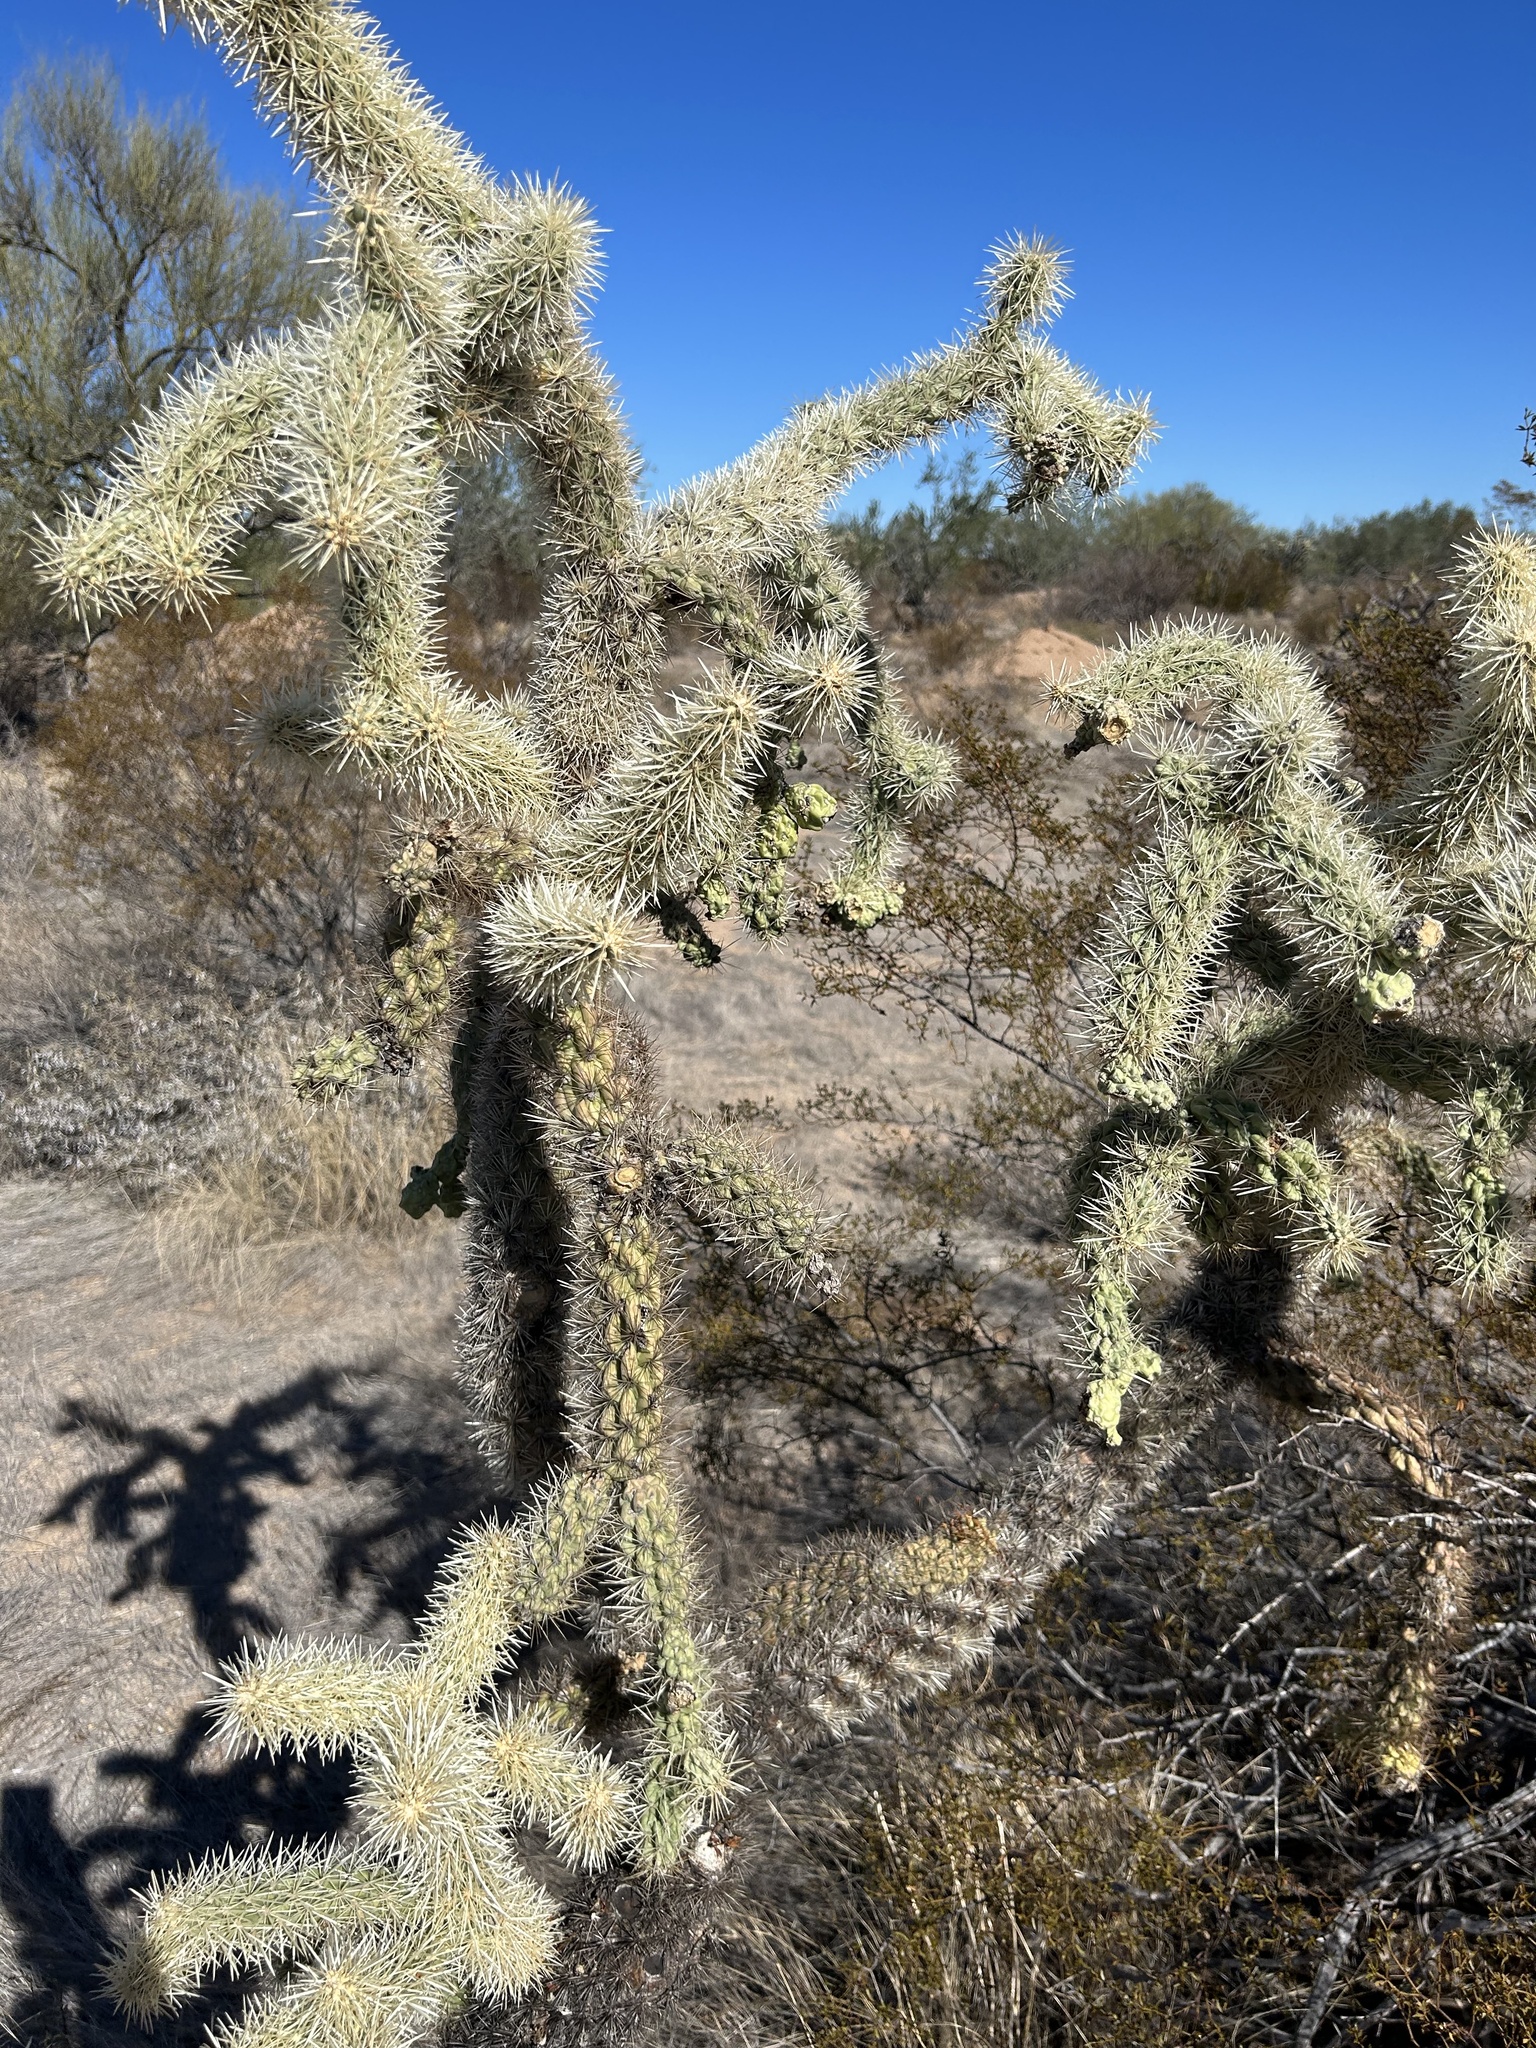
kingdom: Plantae
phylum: Tracheophyta
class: Magnoliopsida
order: Caryophyllales
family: Cactaceae
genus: Cylindropuntia
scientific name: Cylindropuntia fulgida
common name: Jumping cholla
